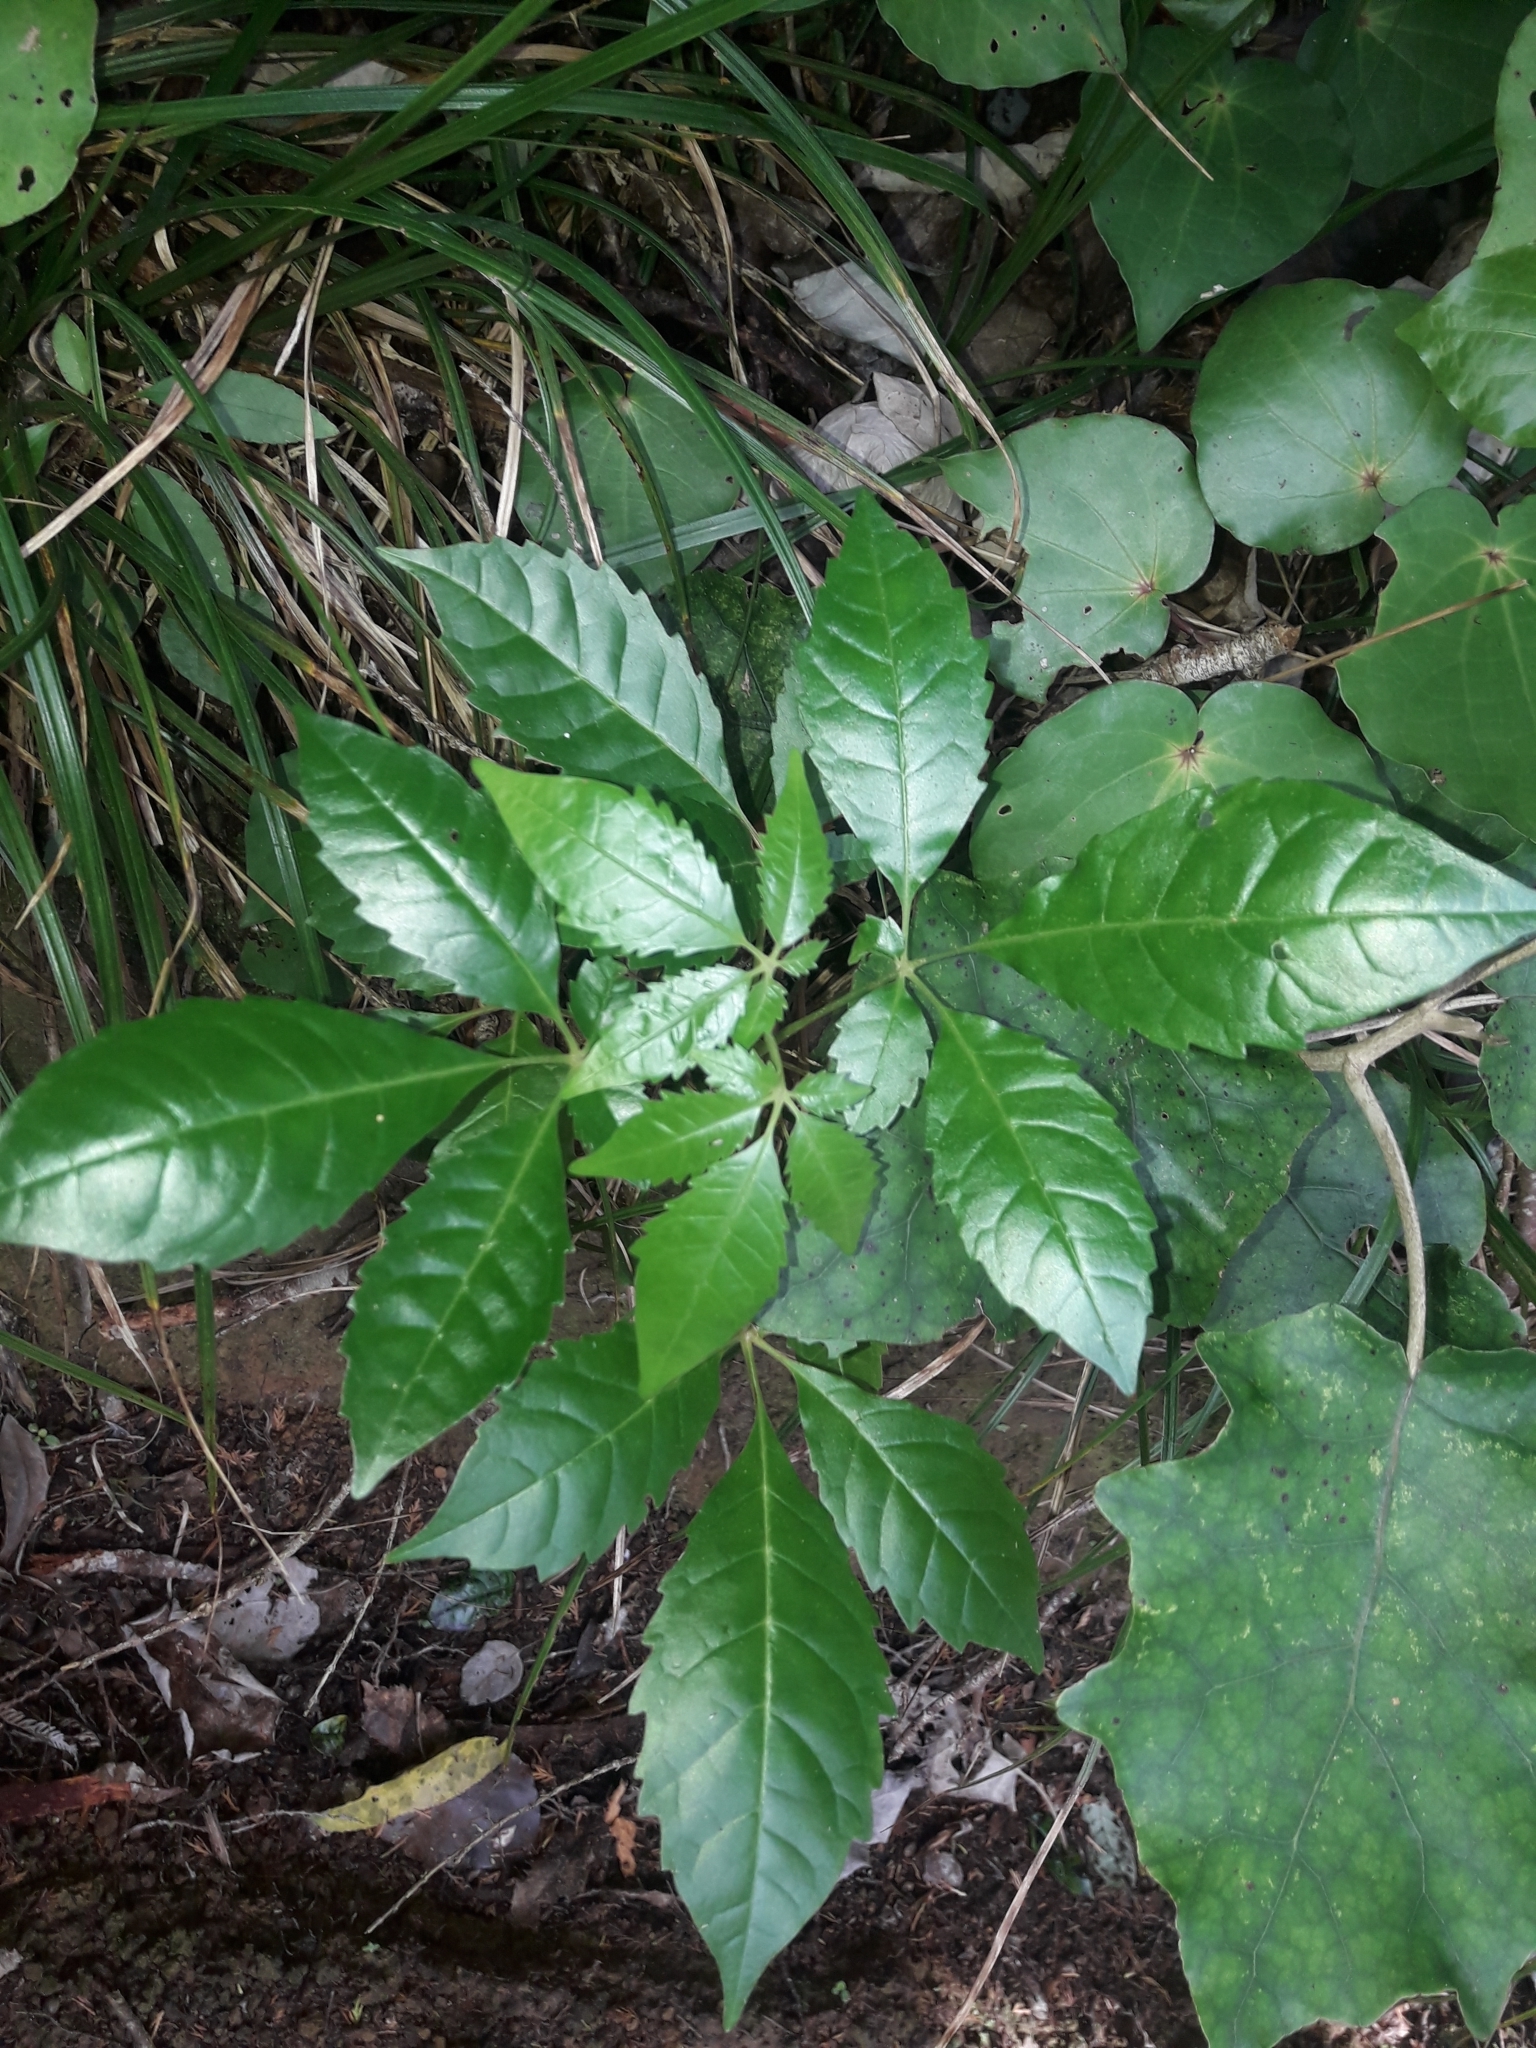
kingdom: Plantae
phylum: Tracheophyta
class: Magnoliopsida
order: Lamiales
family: Lamiaceae
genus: Vitex
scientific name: Vitex lucens
